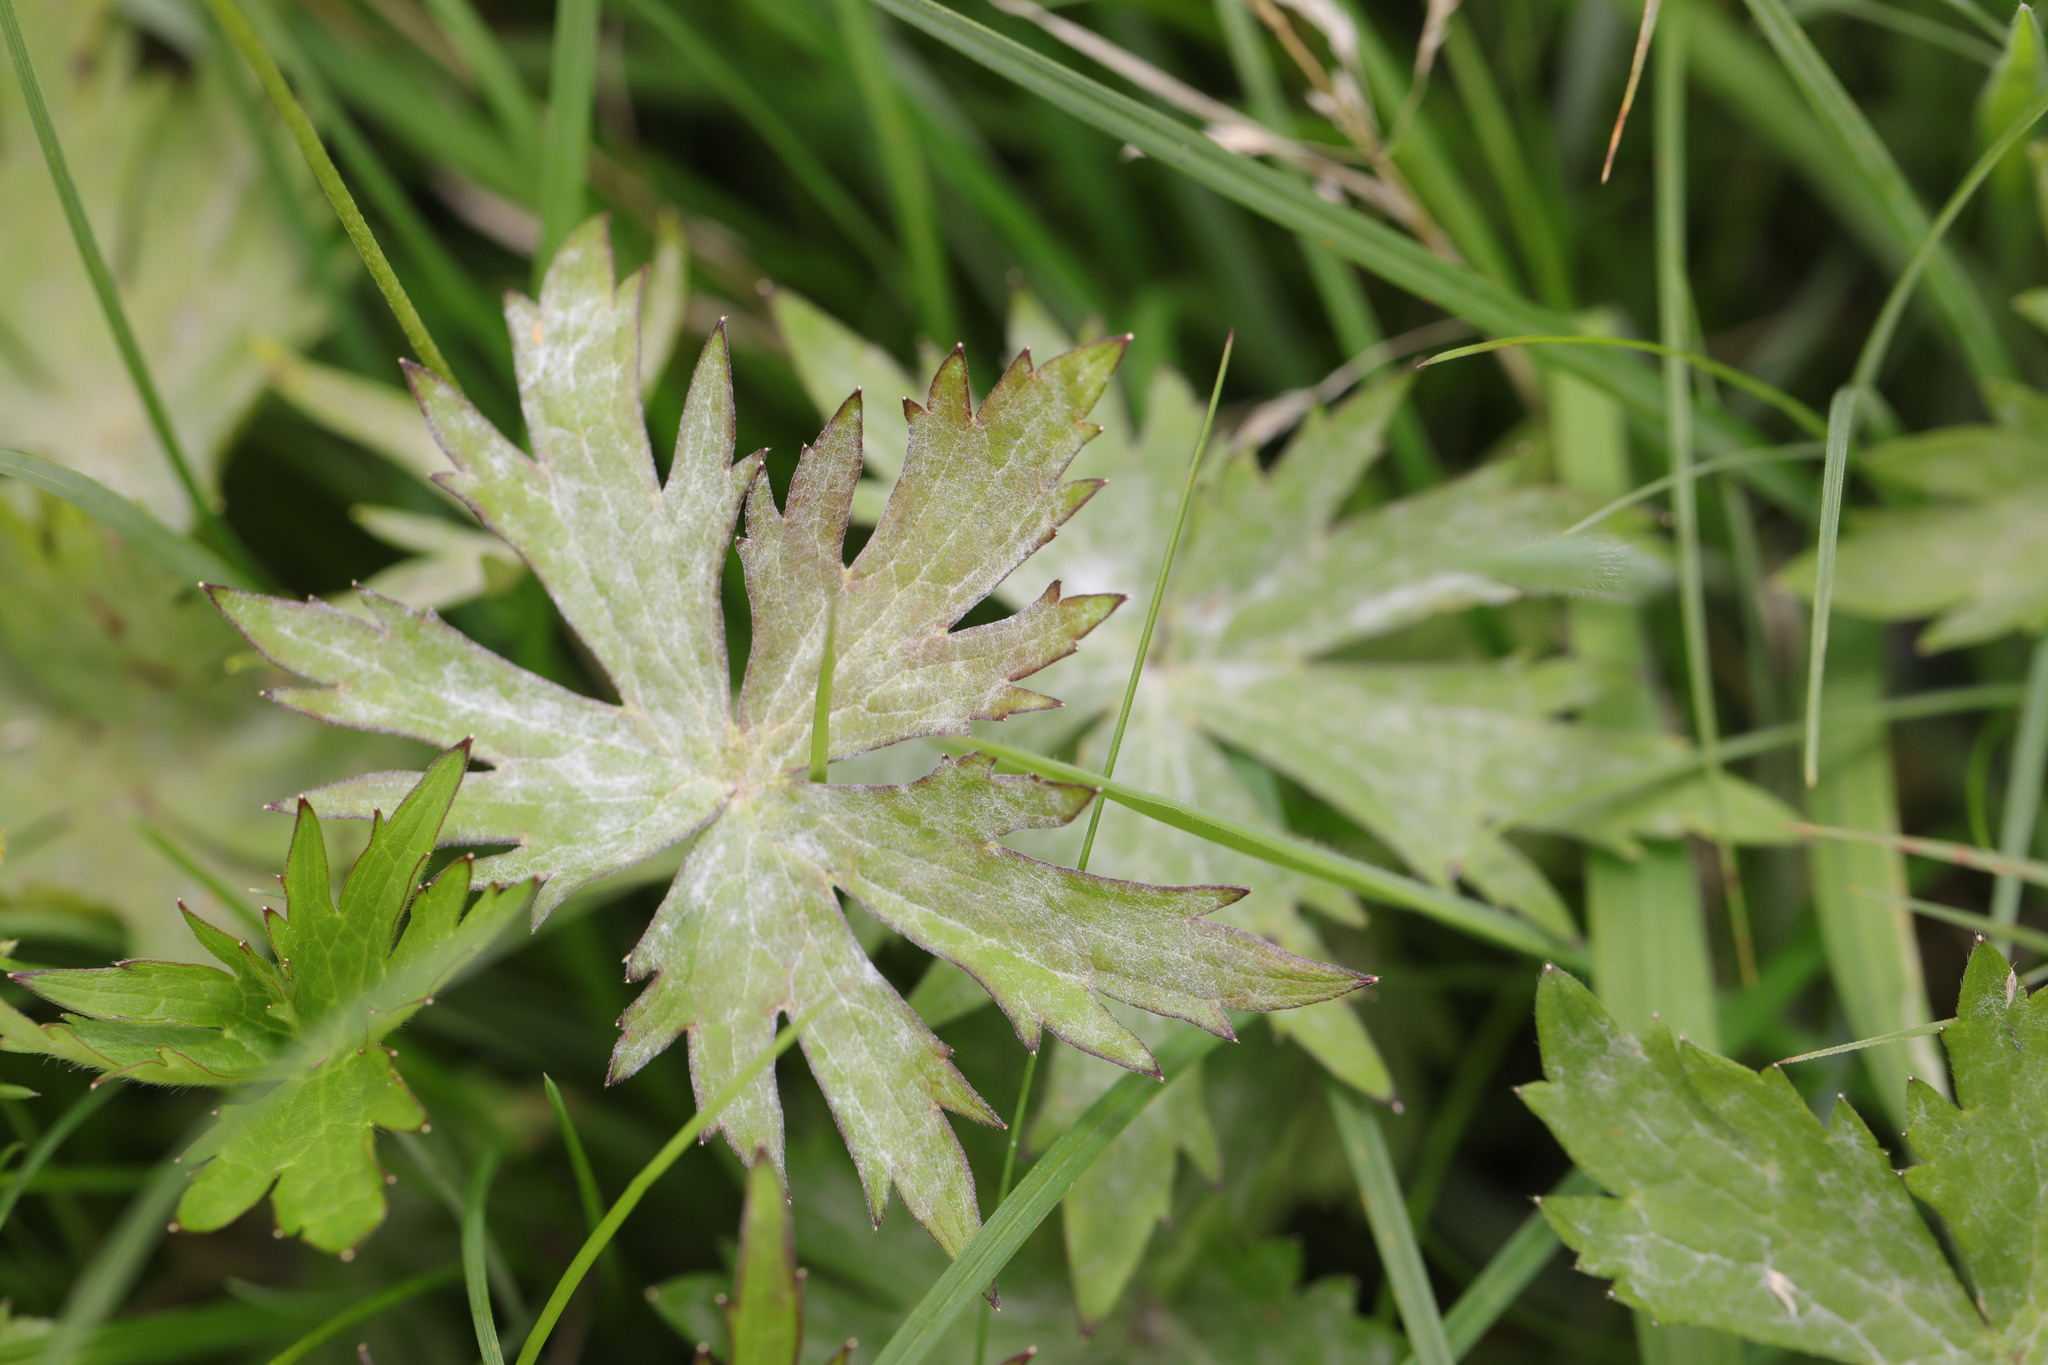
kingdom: Plantae
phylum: Tracheophyta
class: Magnoliopsida
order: Ranunculales
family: Ranunculaceae
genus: Ranunculus
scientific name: Ranunculus acris
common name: Meadow buttercup
